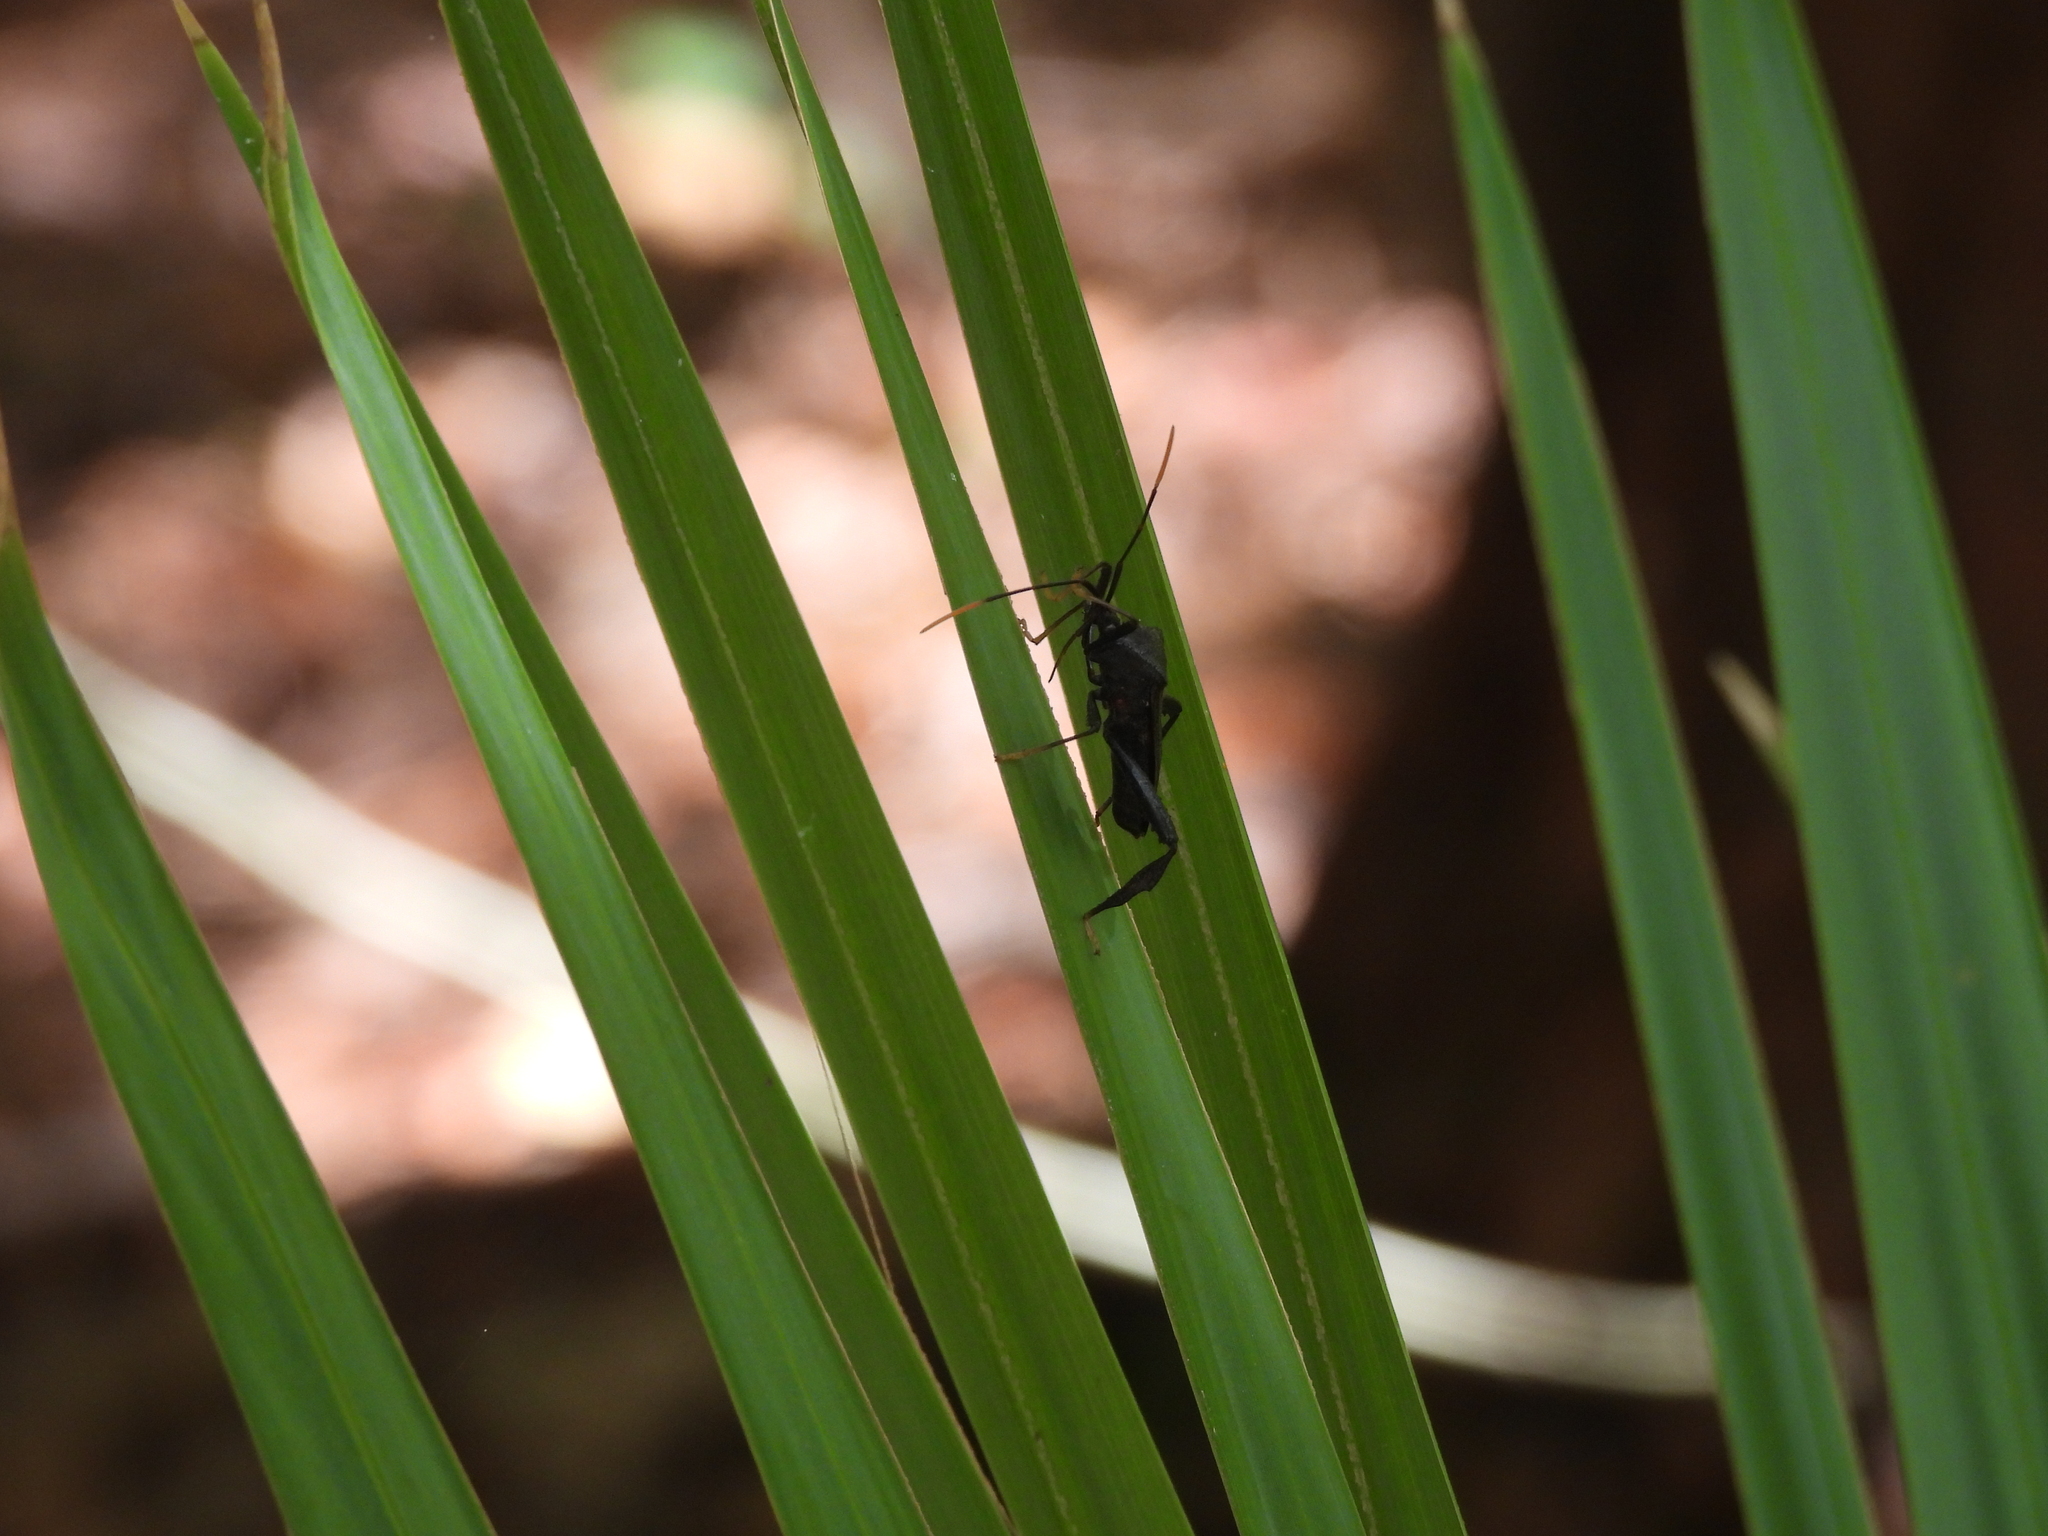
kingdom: Animalia
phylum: Arthropoda
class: Insecta
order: Hemiptera
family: Coreidae
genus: Acanthocephala
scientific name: Acanthocephala terminalis
